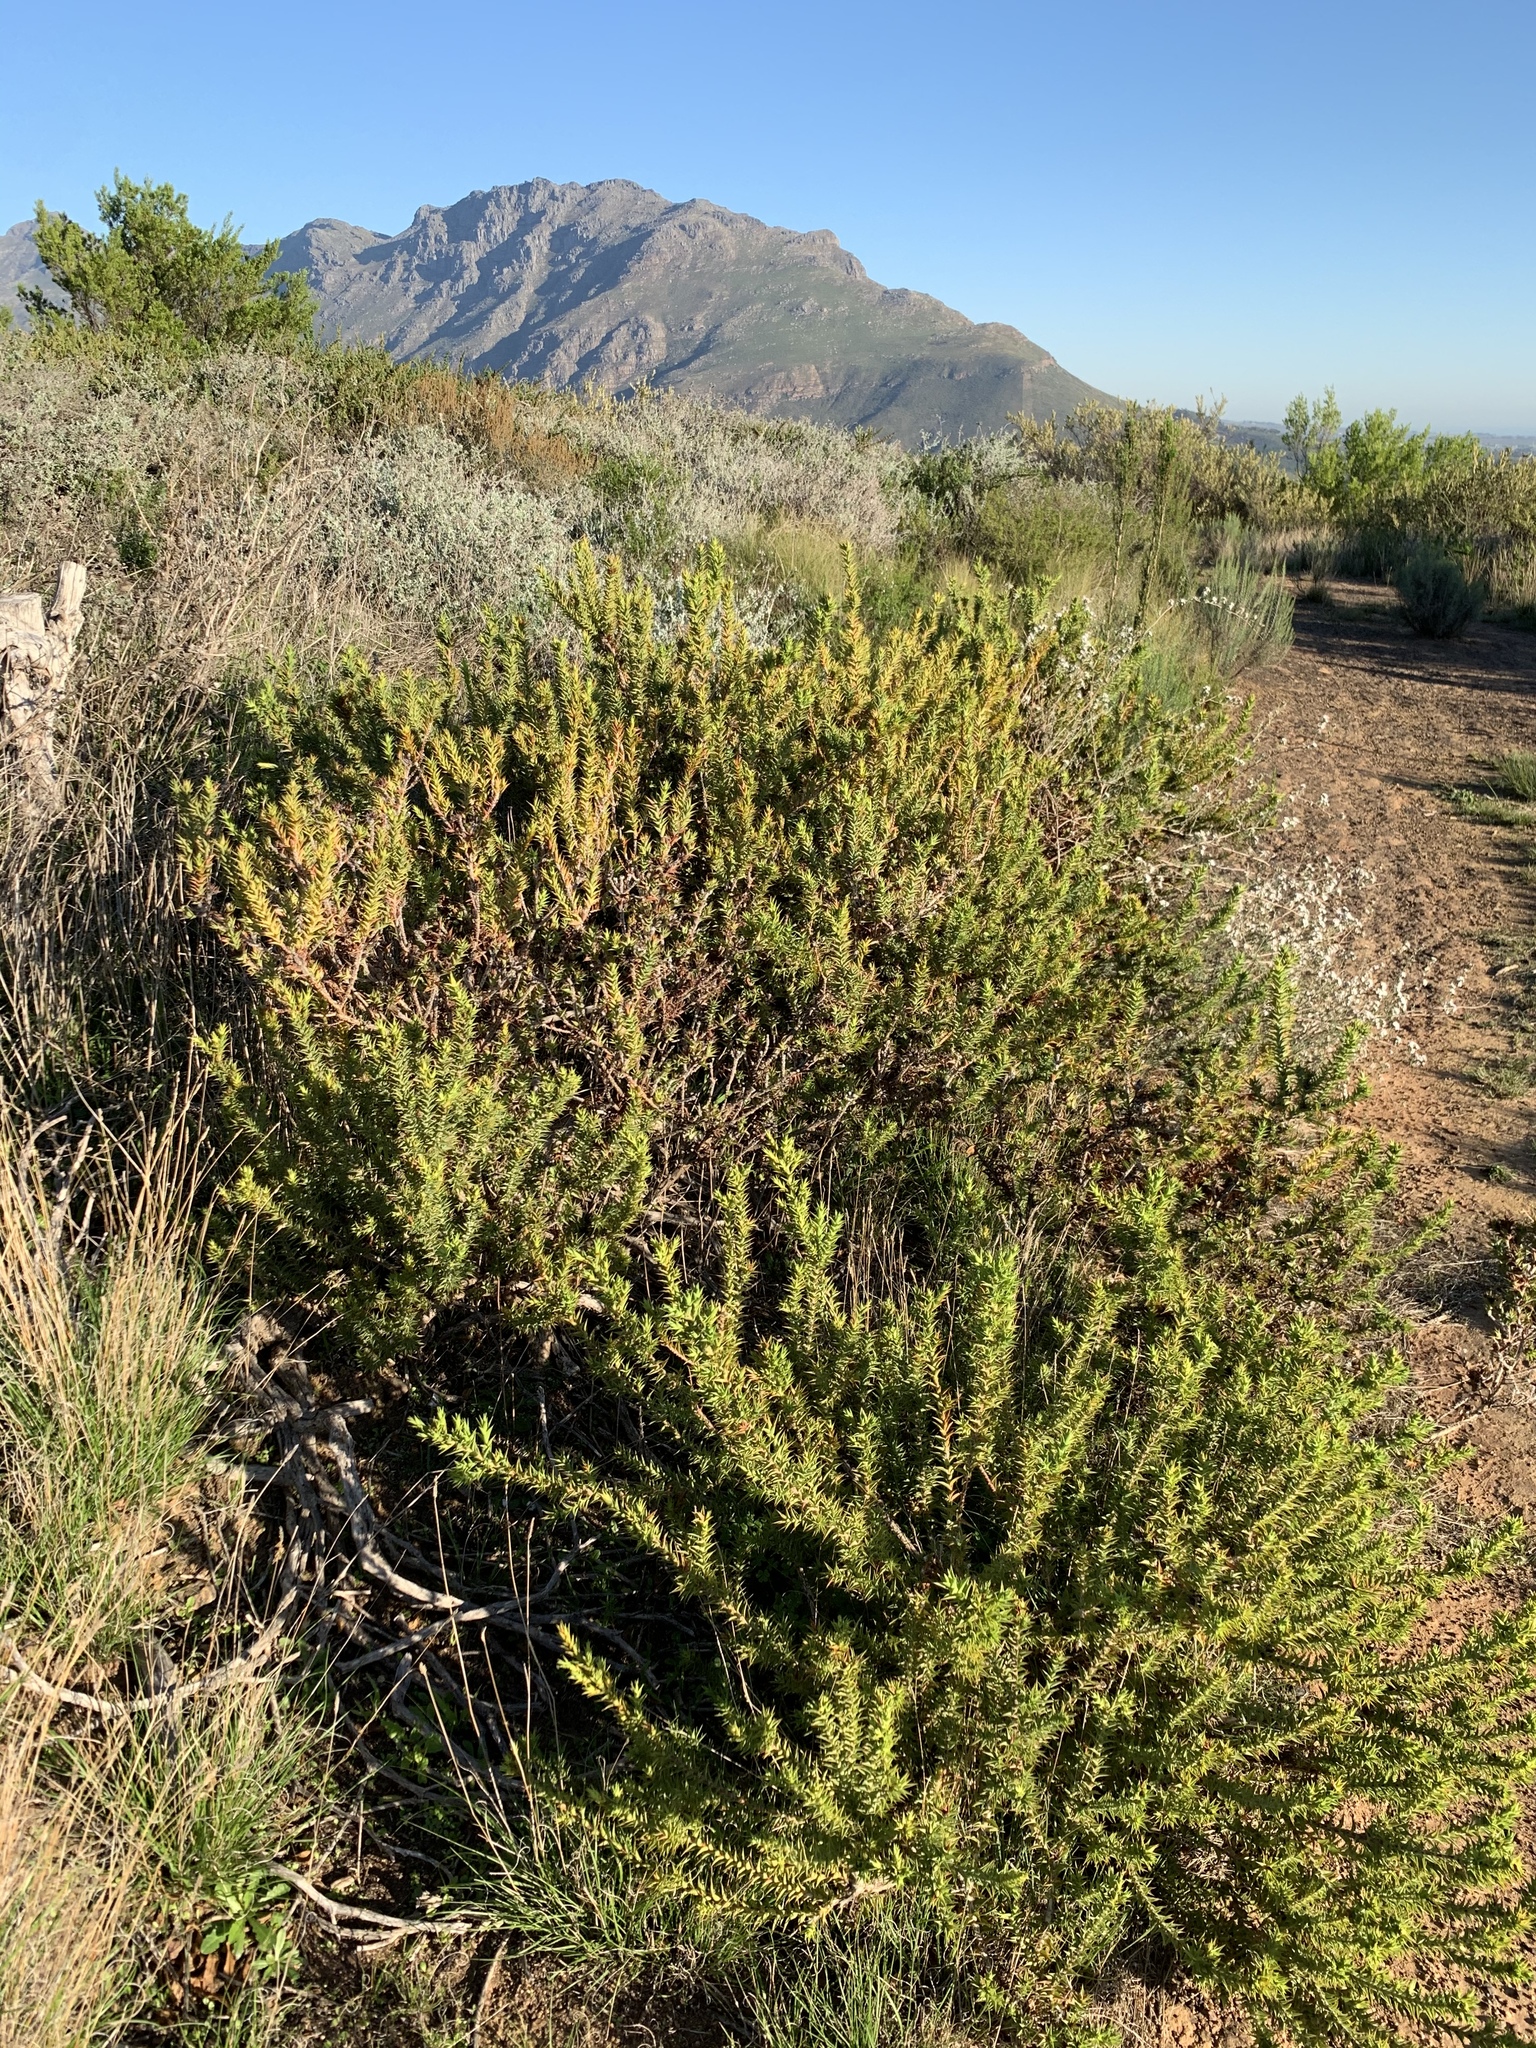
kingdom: Plantae
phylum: Tracheophyta
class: Magnoliopsida
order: Fabales
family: Fabaceae
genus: Aspalathus
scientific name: Aspalathus cordata
